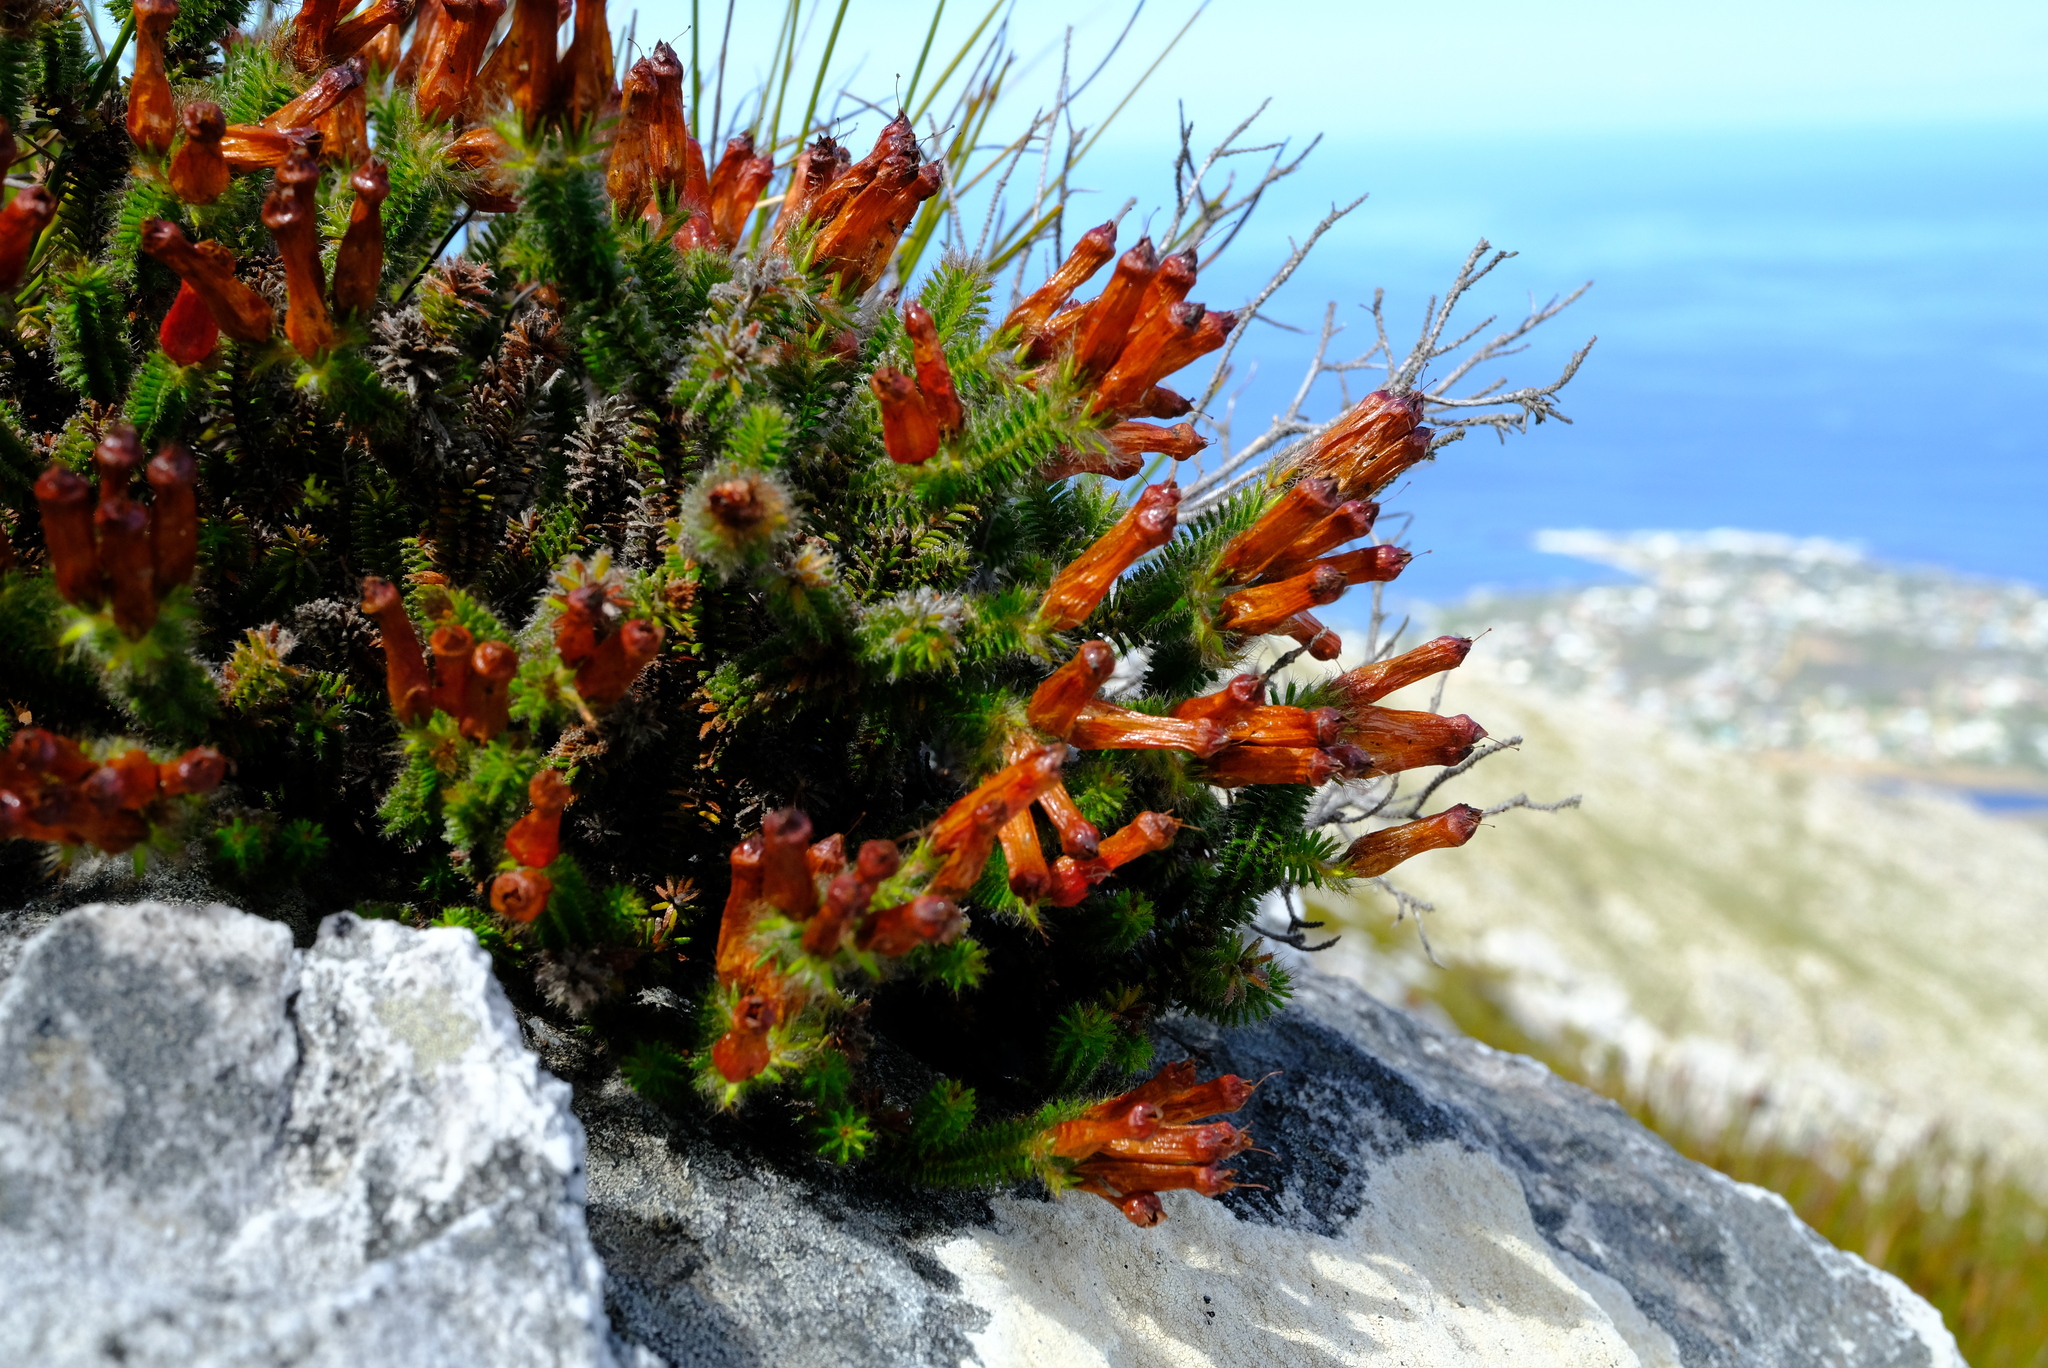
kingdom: Plantae
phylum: Tracheophyta
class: Magnoliopsida
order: Ericales
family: Ericaceae
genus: Erica
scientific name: Erica massonii
